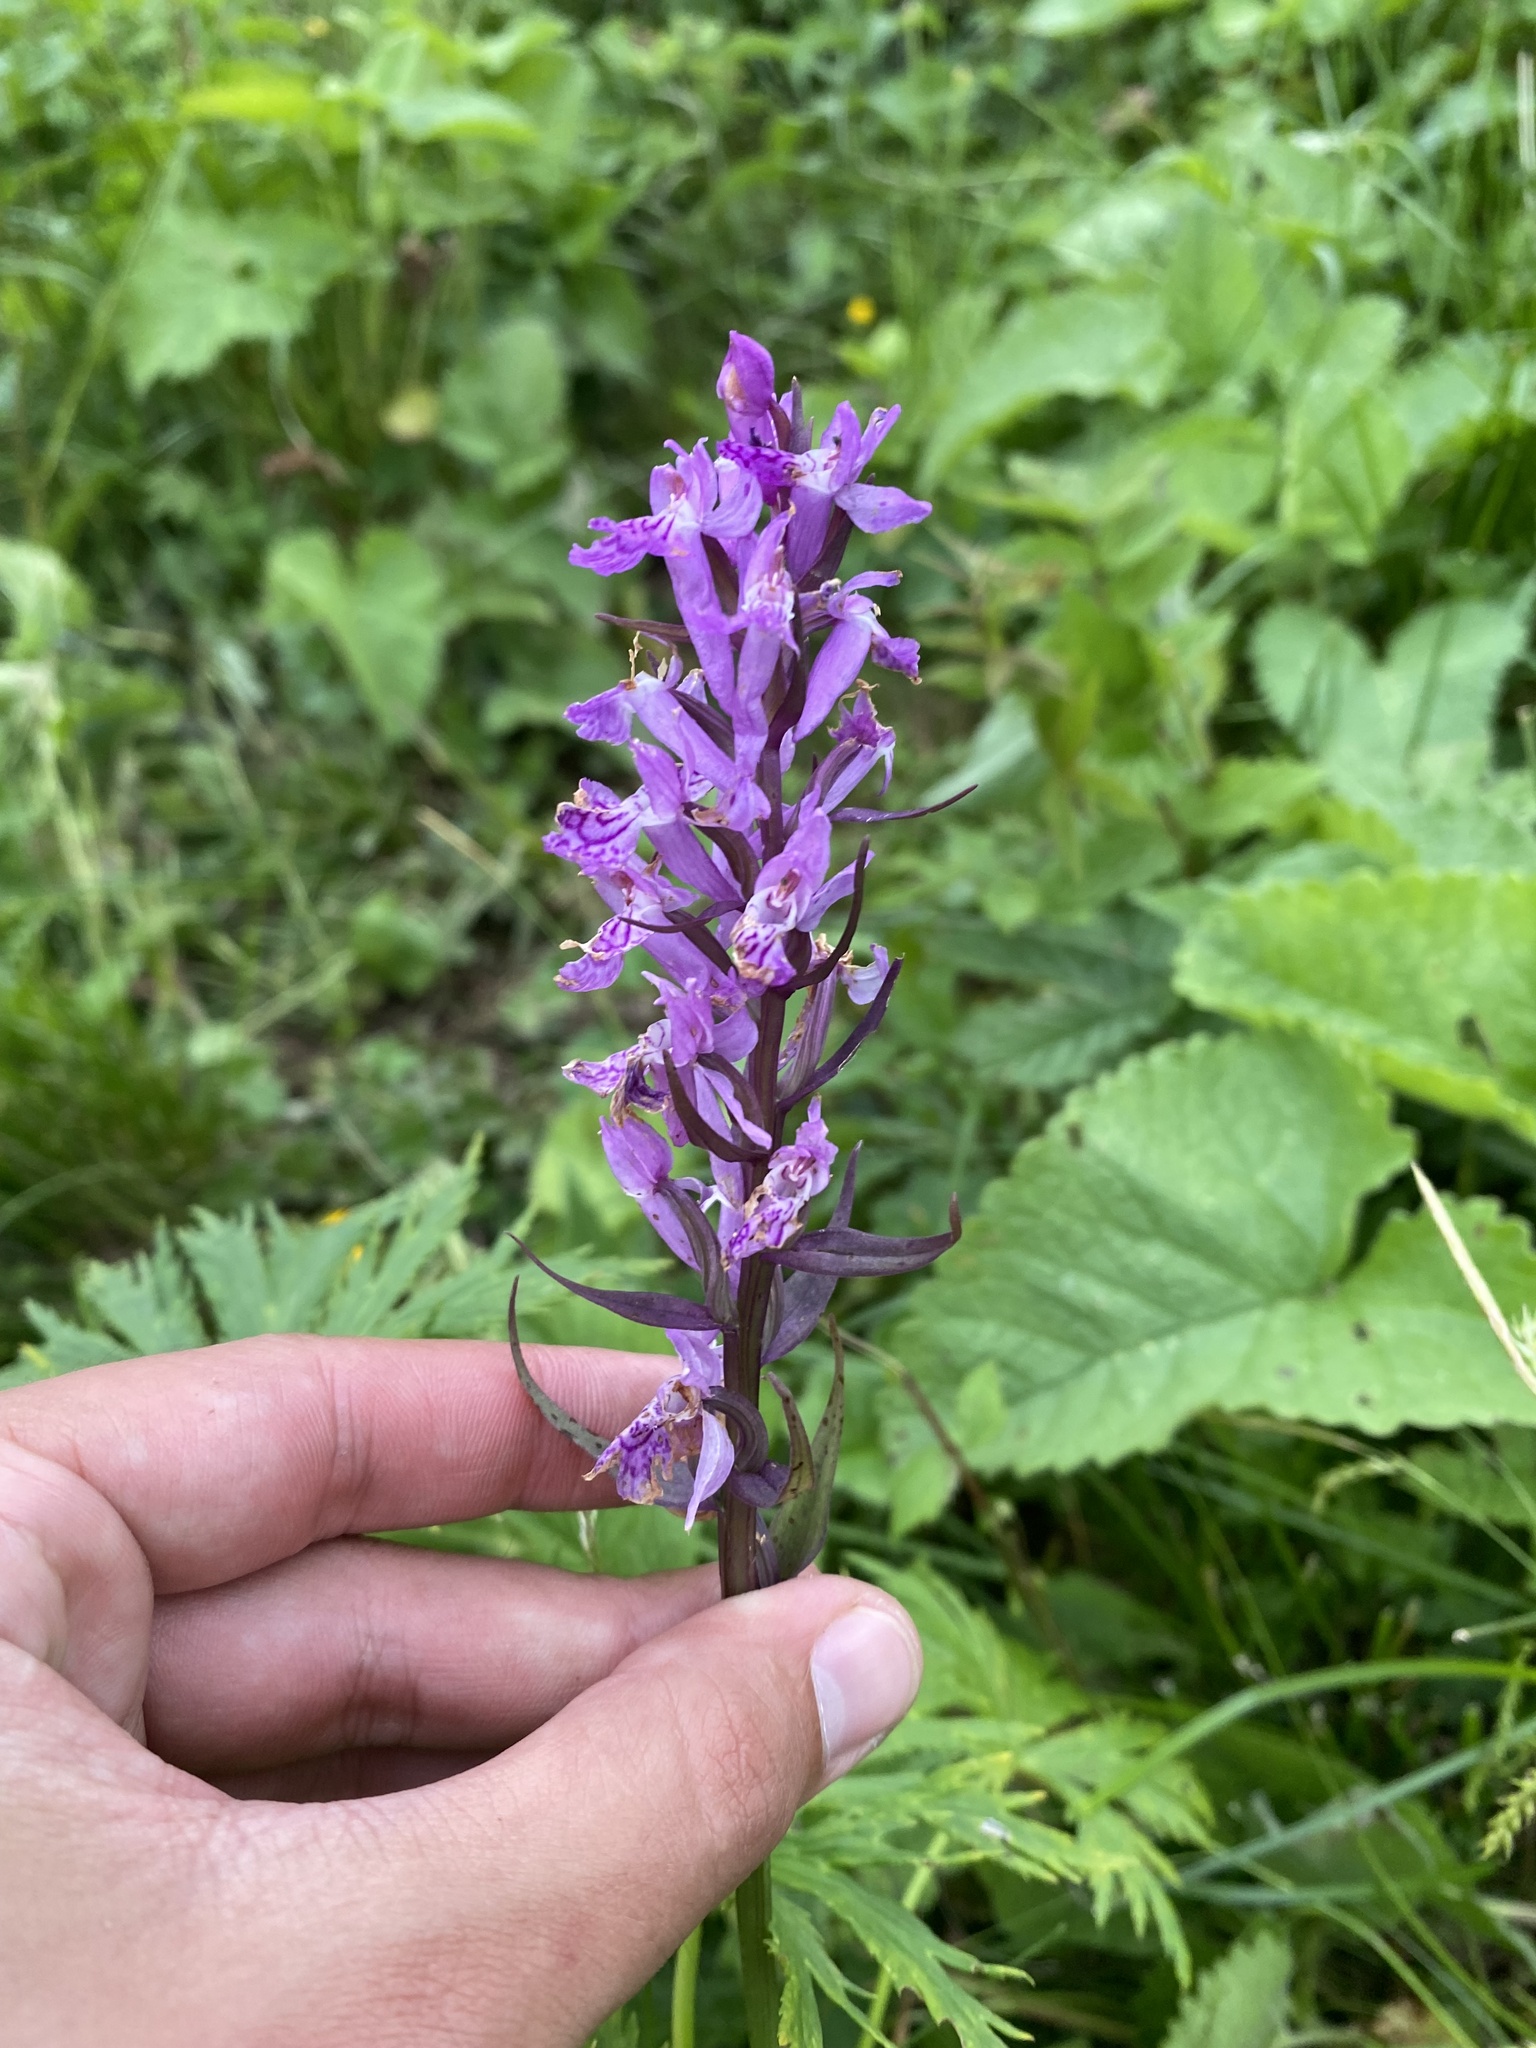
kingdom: Plantae
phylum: Tracheophyta
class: Liliopsida
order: Asparagales
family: Orchidaceae
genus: Dactylorhiza
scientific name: Dactylorhiza urvilleana
